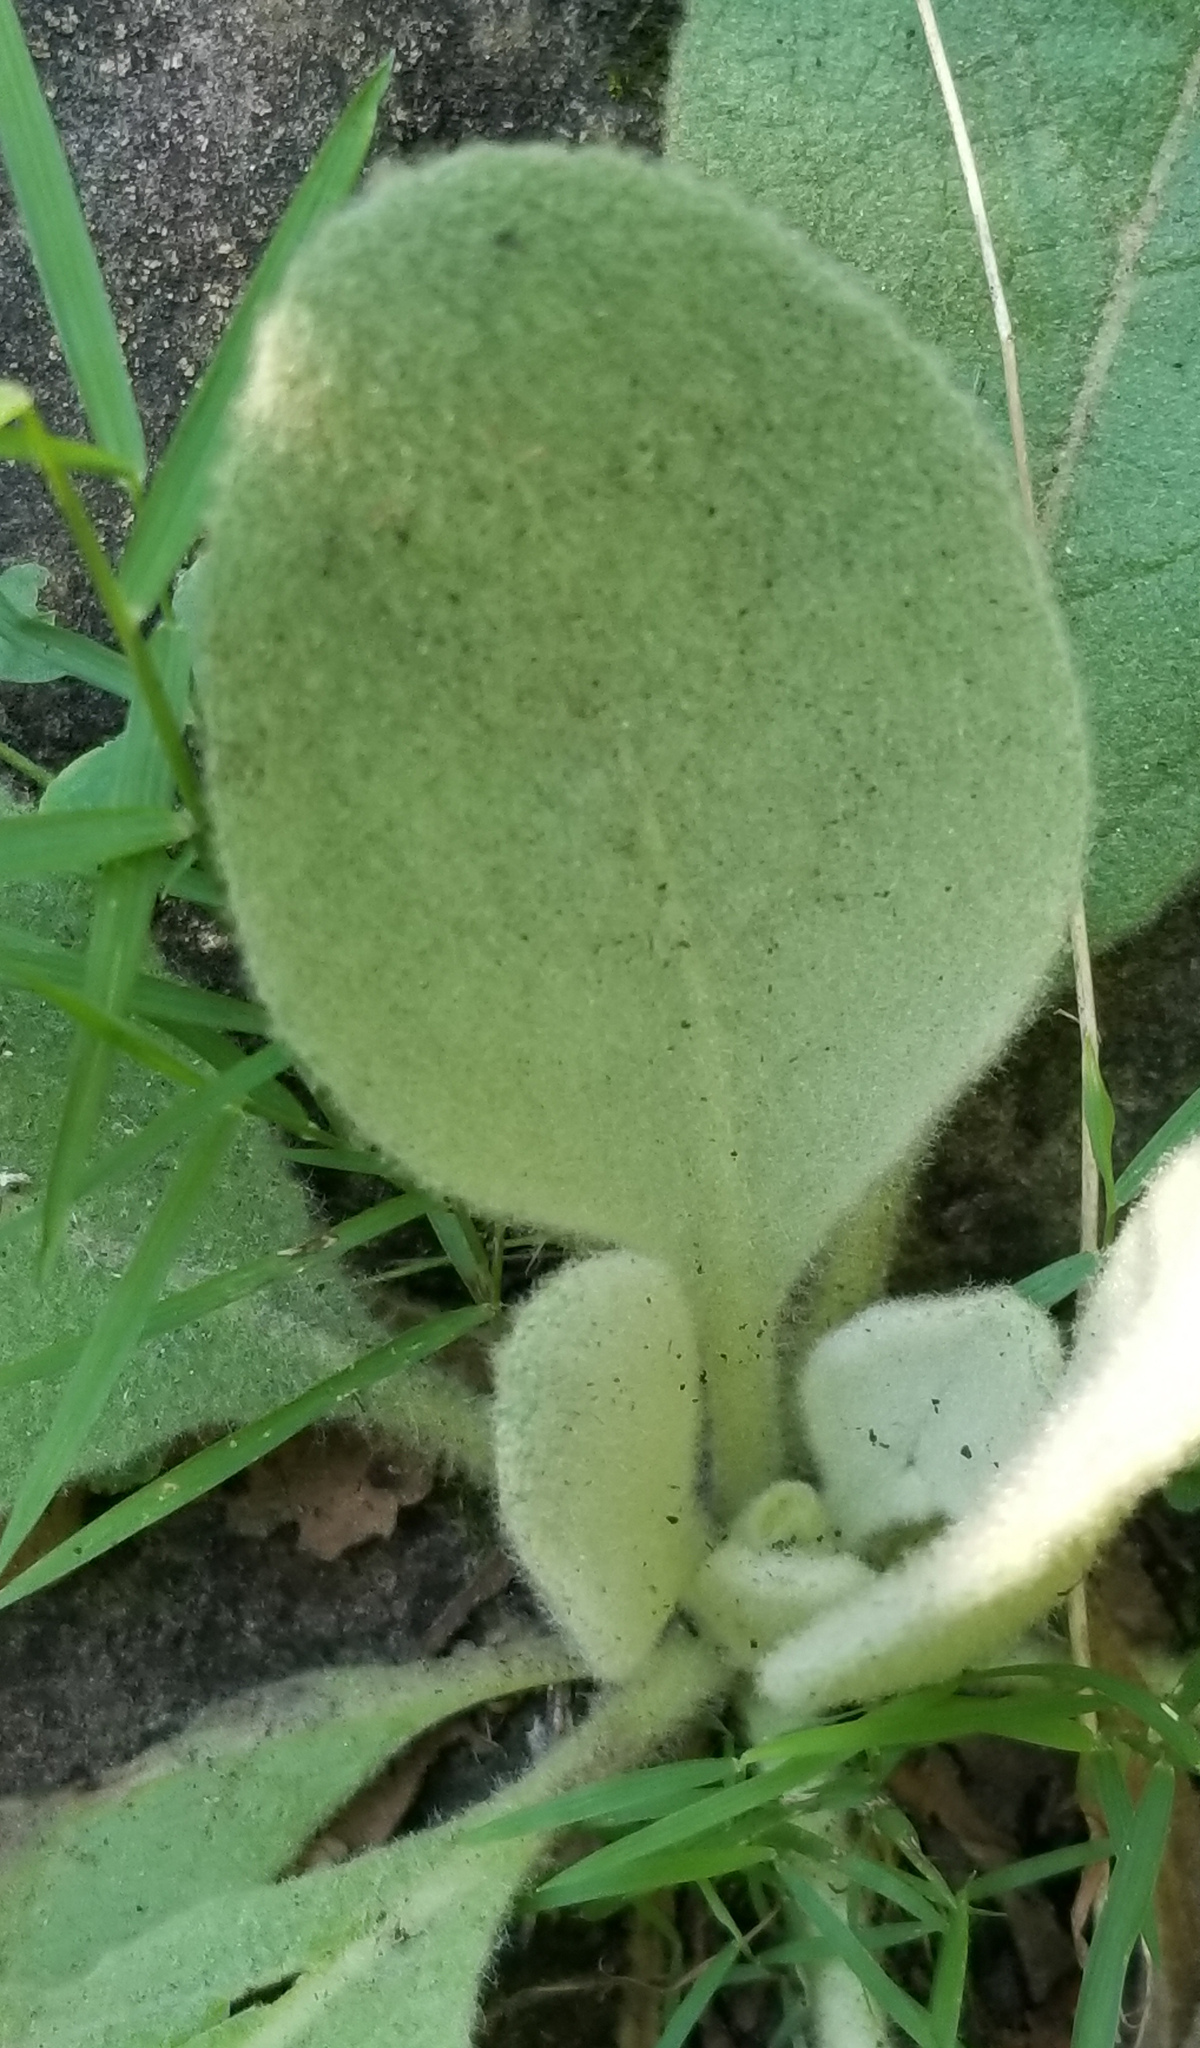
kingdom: Plantae
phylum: Tracheophyta
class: Magnoliopsida
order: Lamiales
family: Scrophulariaceae
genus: Verbascum
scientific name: Verbascum thapsus
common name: Common mullein
